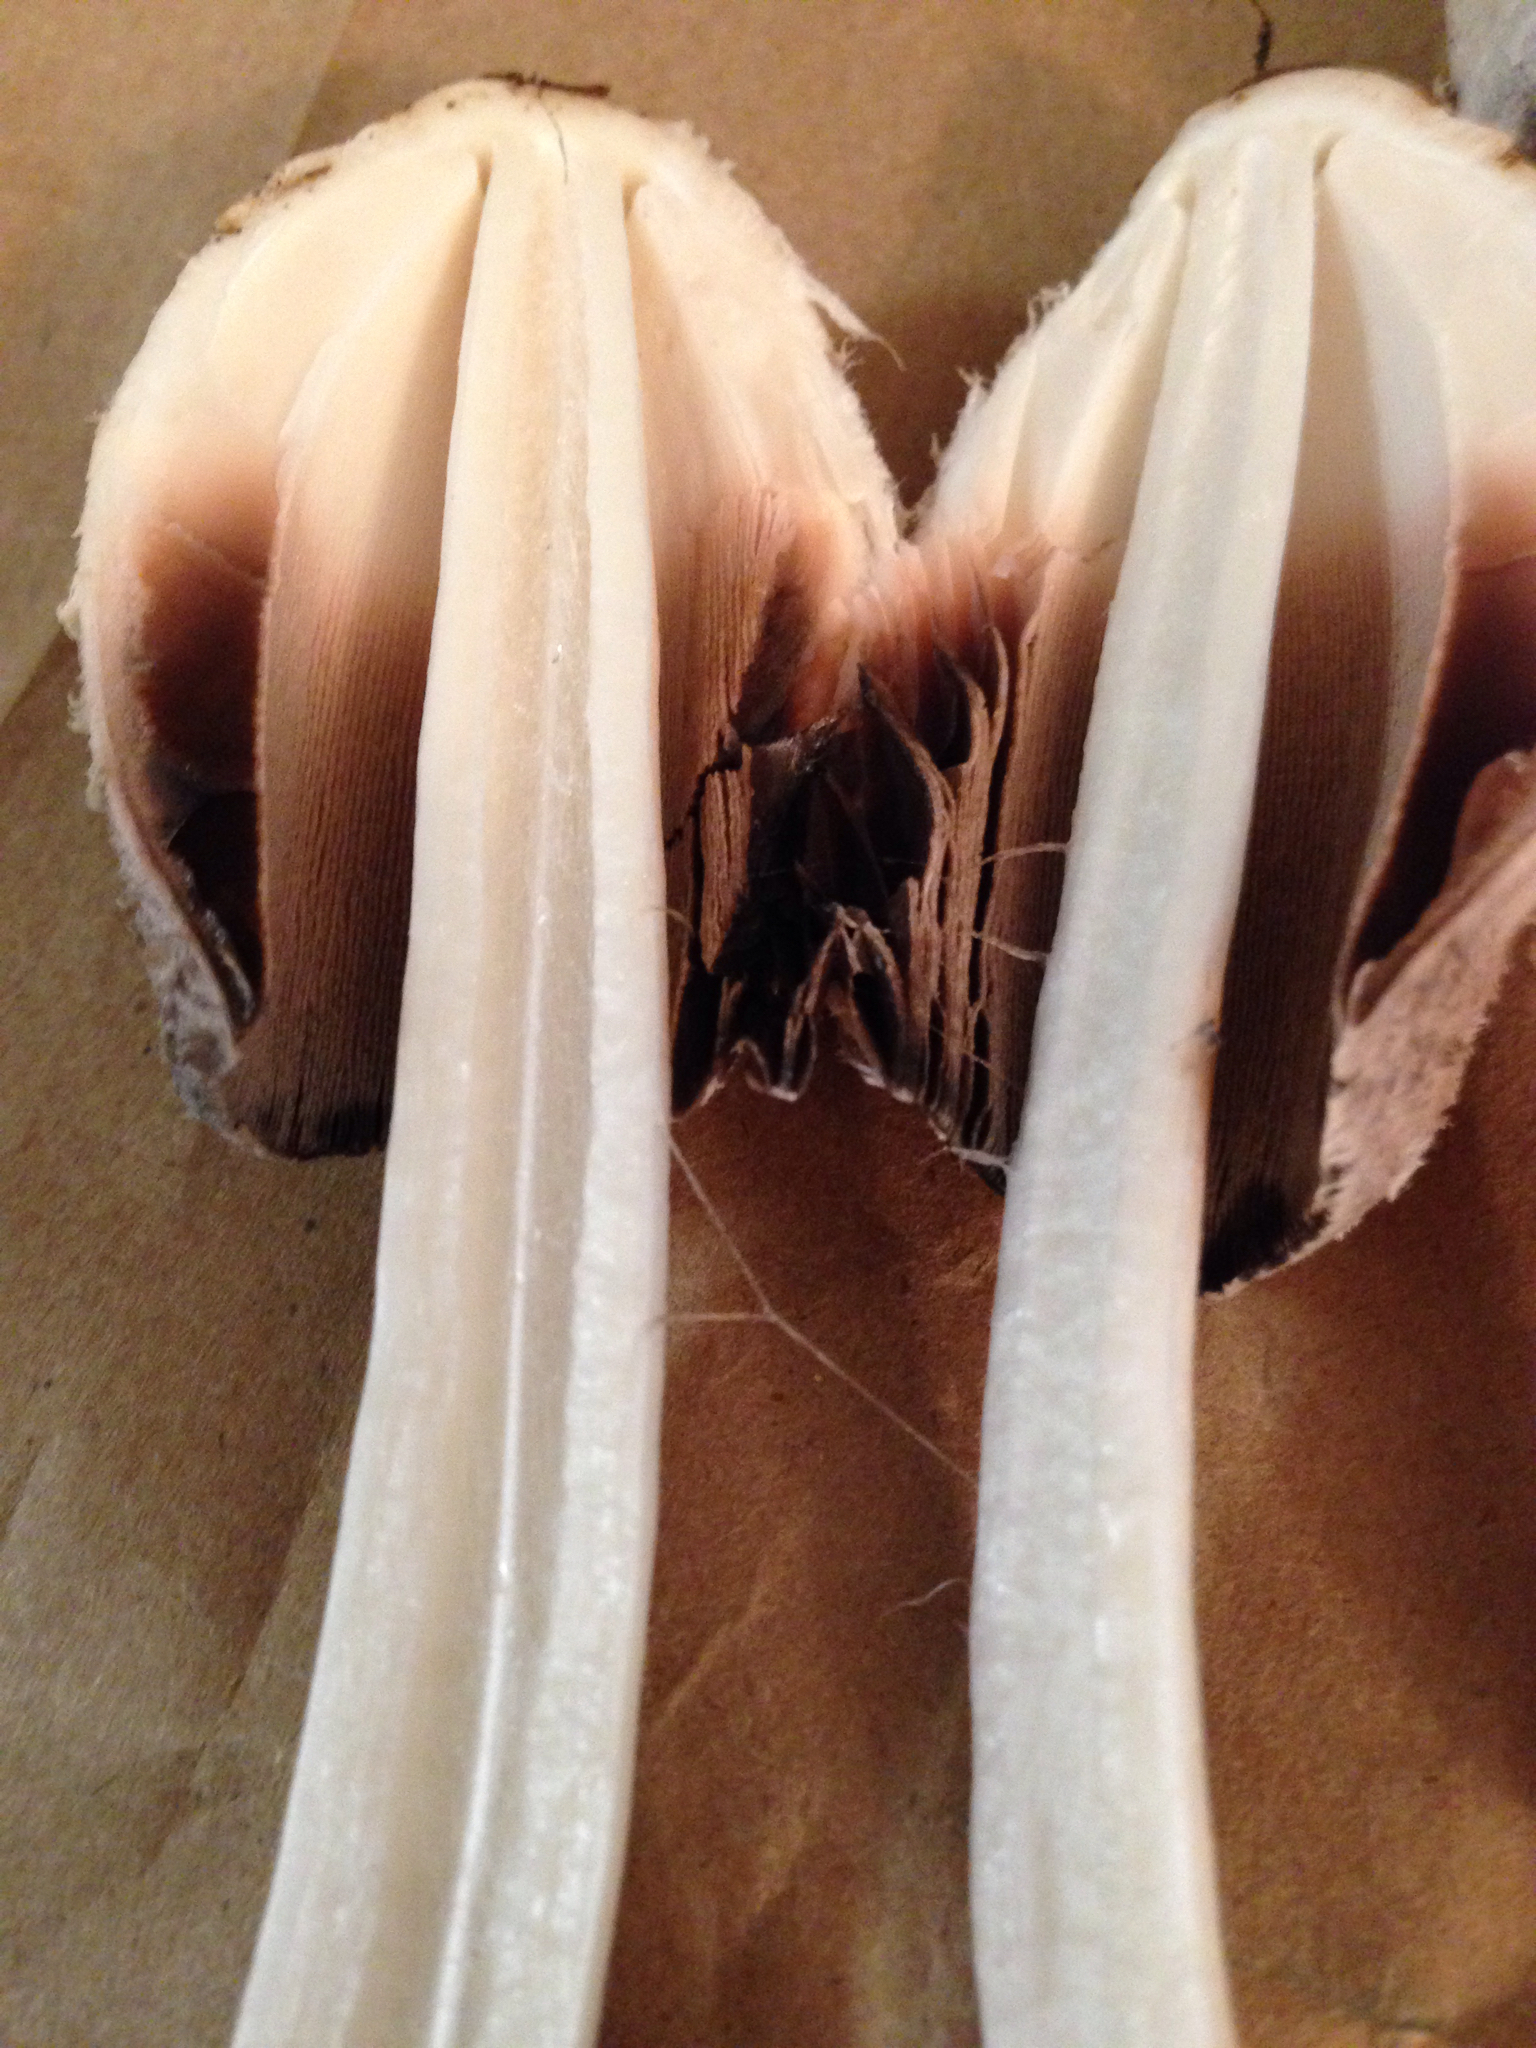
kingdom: Fungi
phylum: Basidiomycota
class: Agaricomycetes
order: Agaricales
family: Agaricaceae
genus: Coprinus
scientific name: Coprinus comatus
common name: Lawyer's wig
